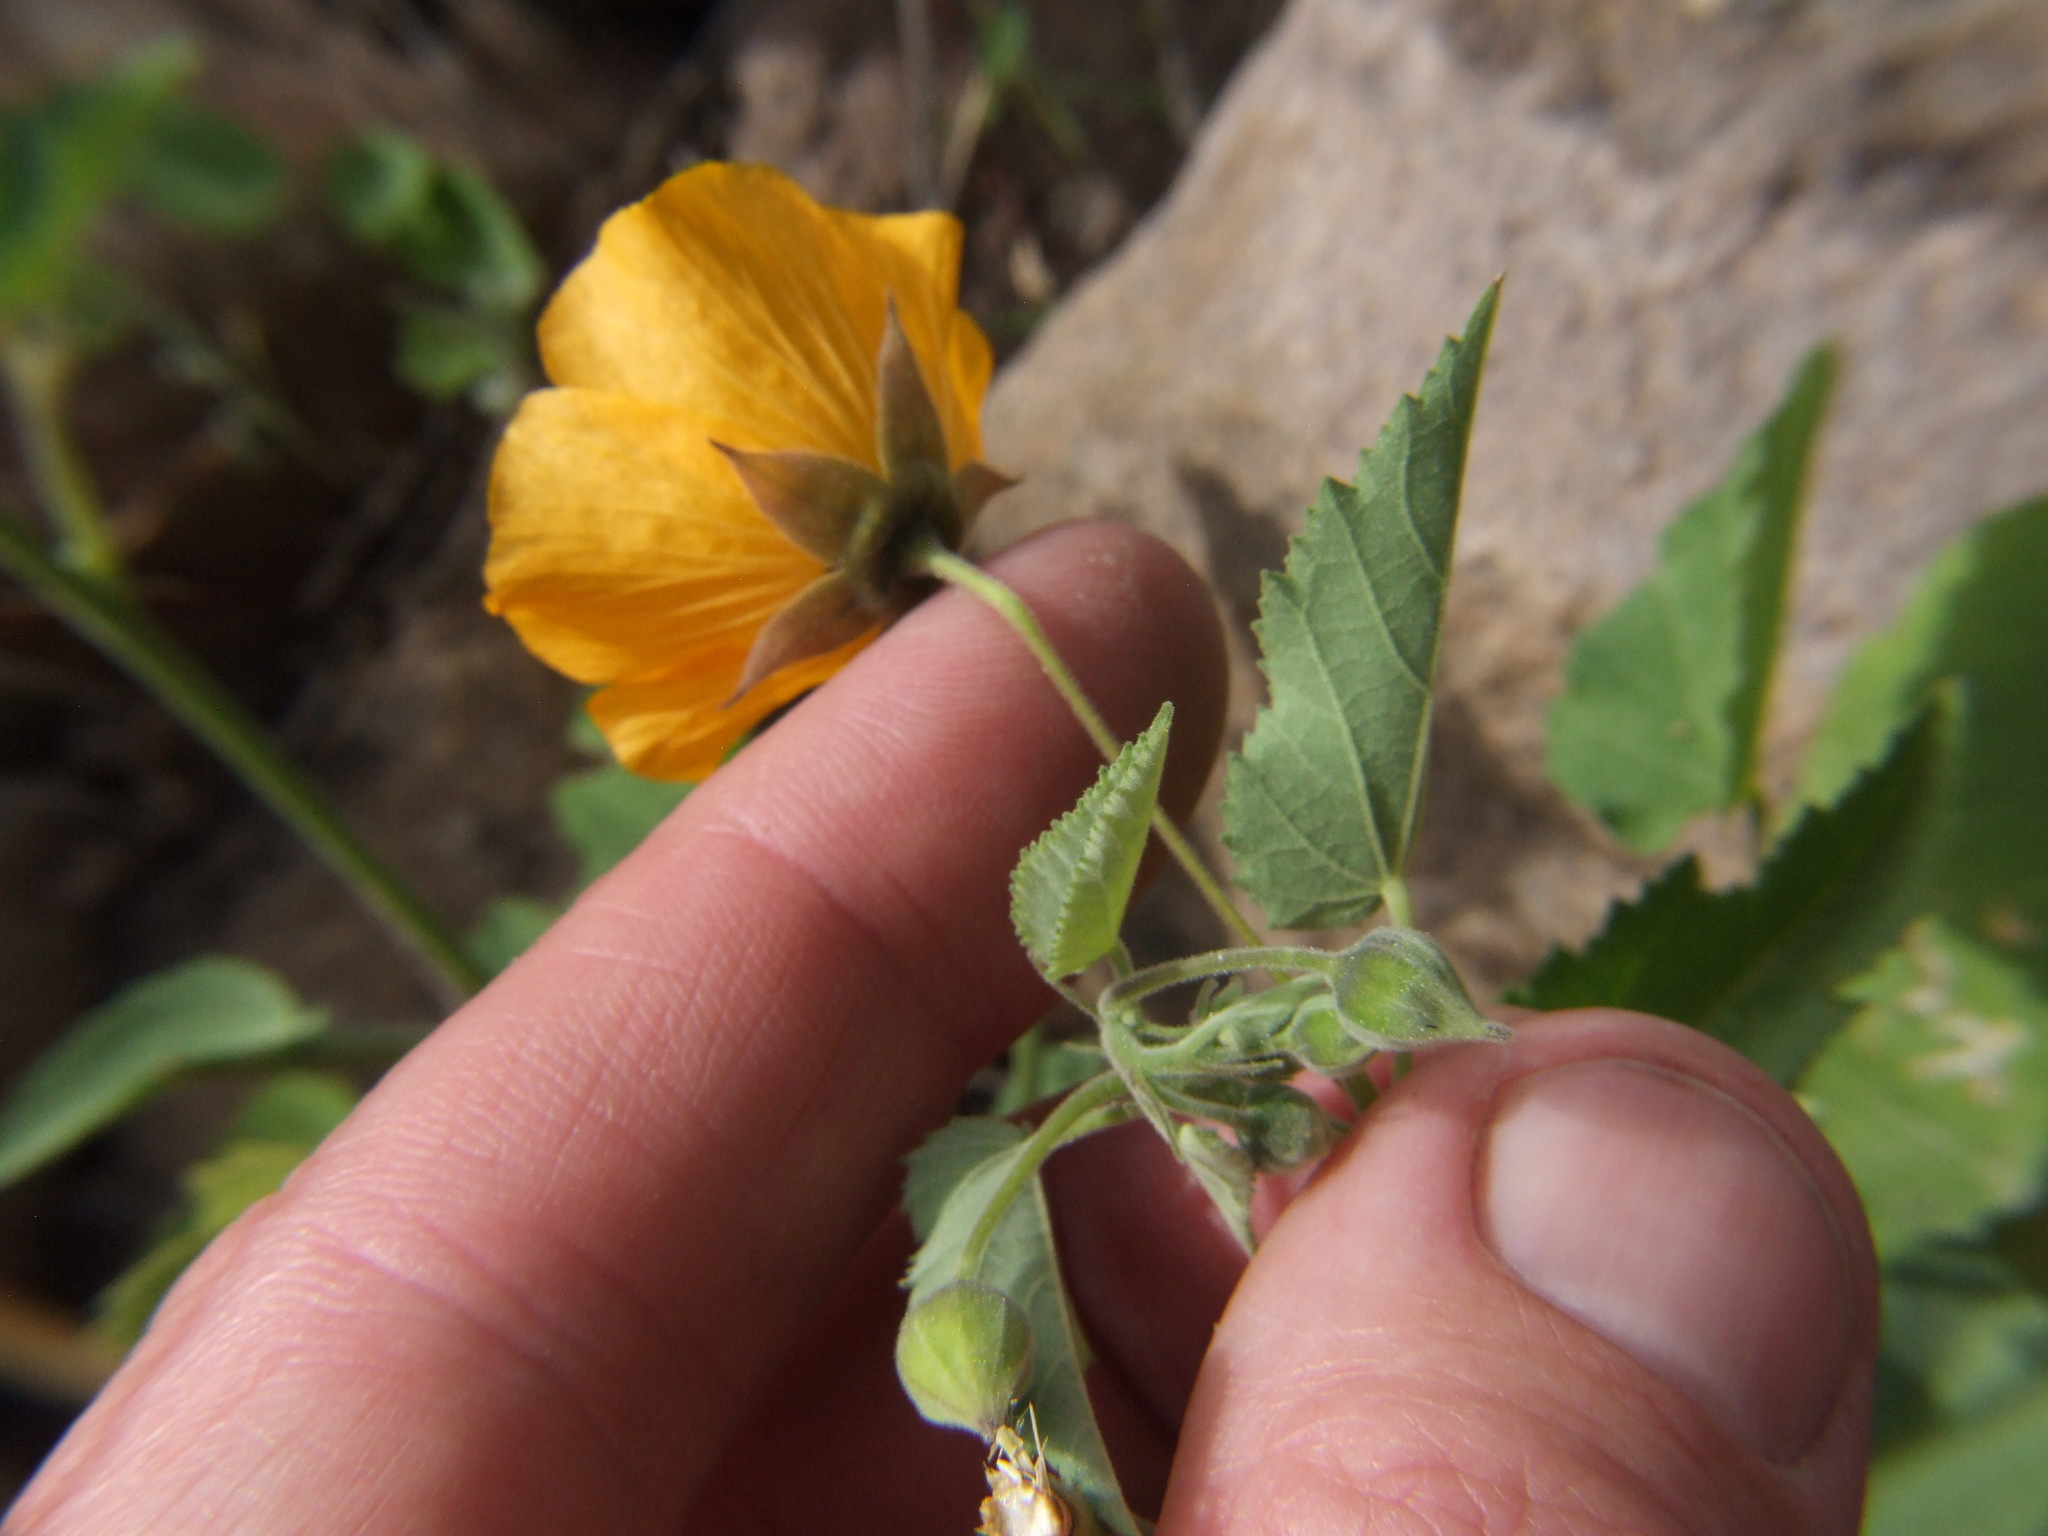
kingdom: Plantae
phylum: Tracheophyta
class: Magnoliopsida
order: Malvales
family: Malvaceae
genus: Gaya
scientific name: Gaya weberbaueri
